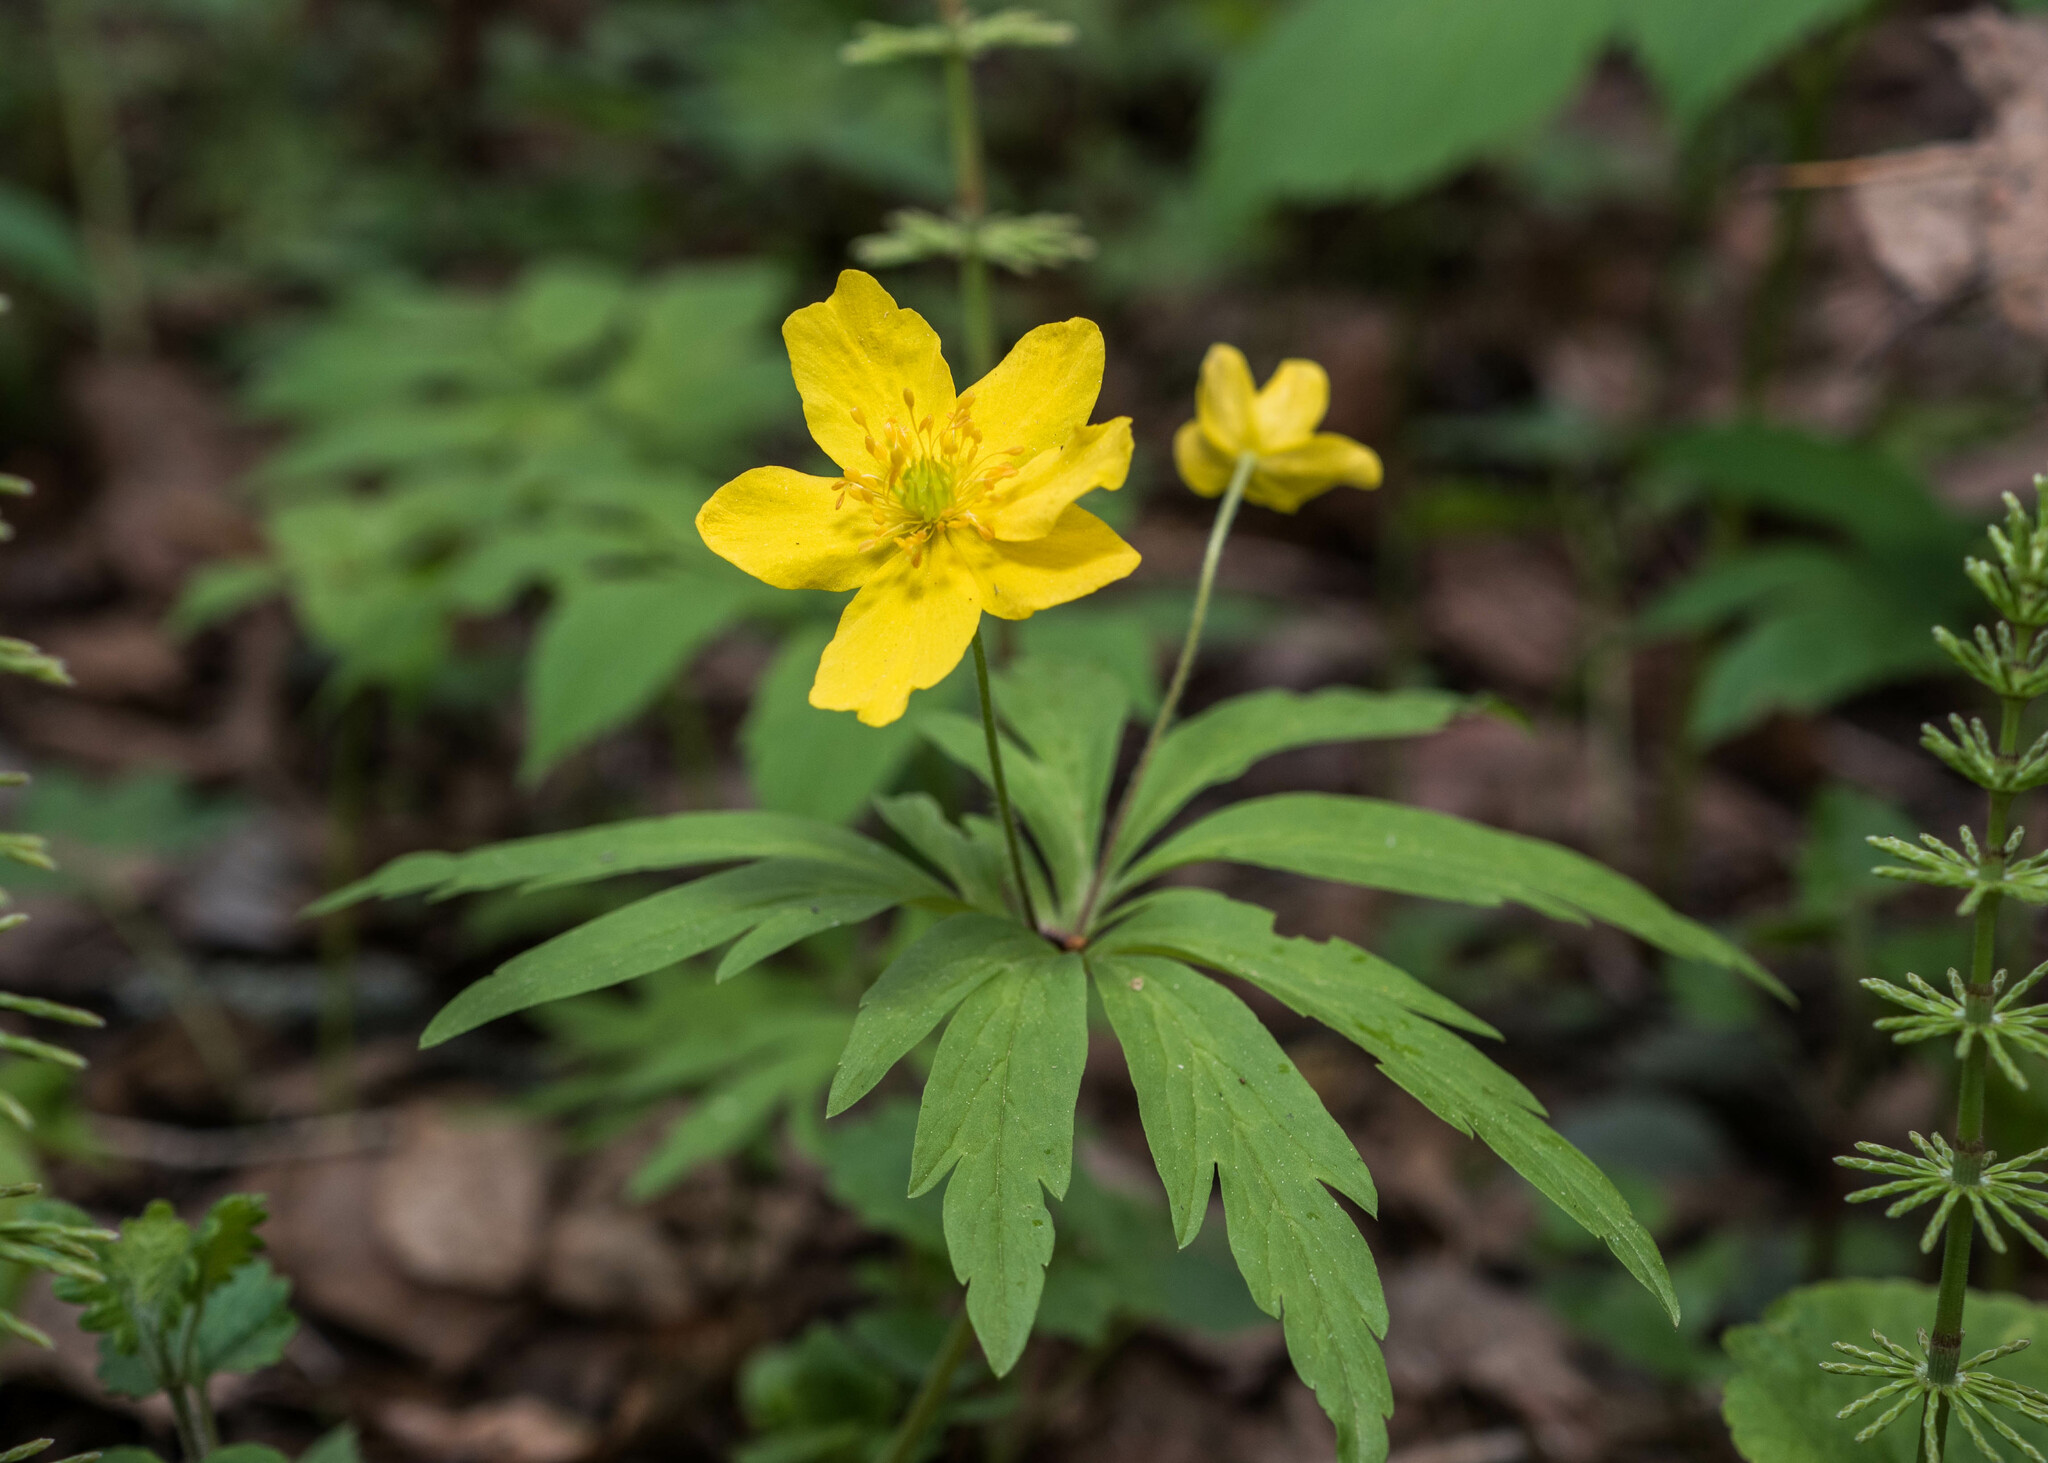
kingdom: Plantae
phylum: Tracheophyta
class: Magnoliopsida
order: Ranunculales
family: Ranunculaceae
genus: Anemone
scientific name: Anemone ranunculoides
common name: Yellow anemone
